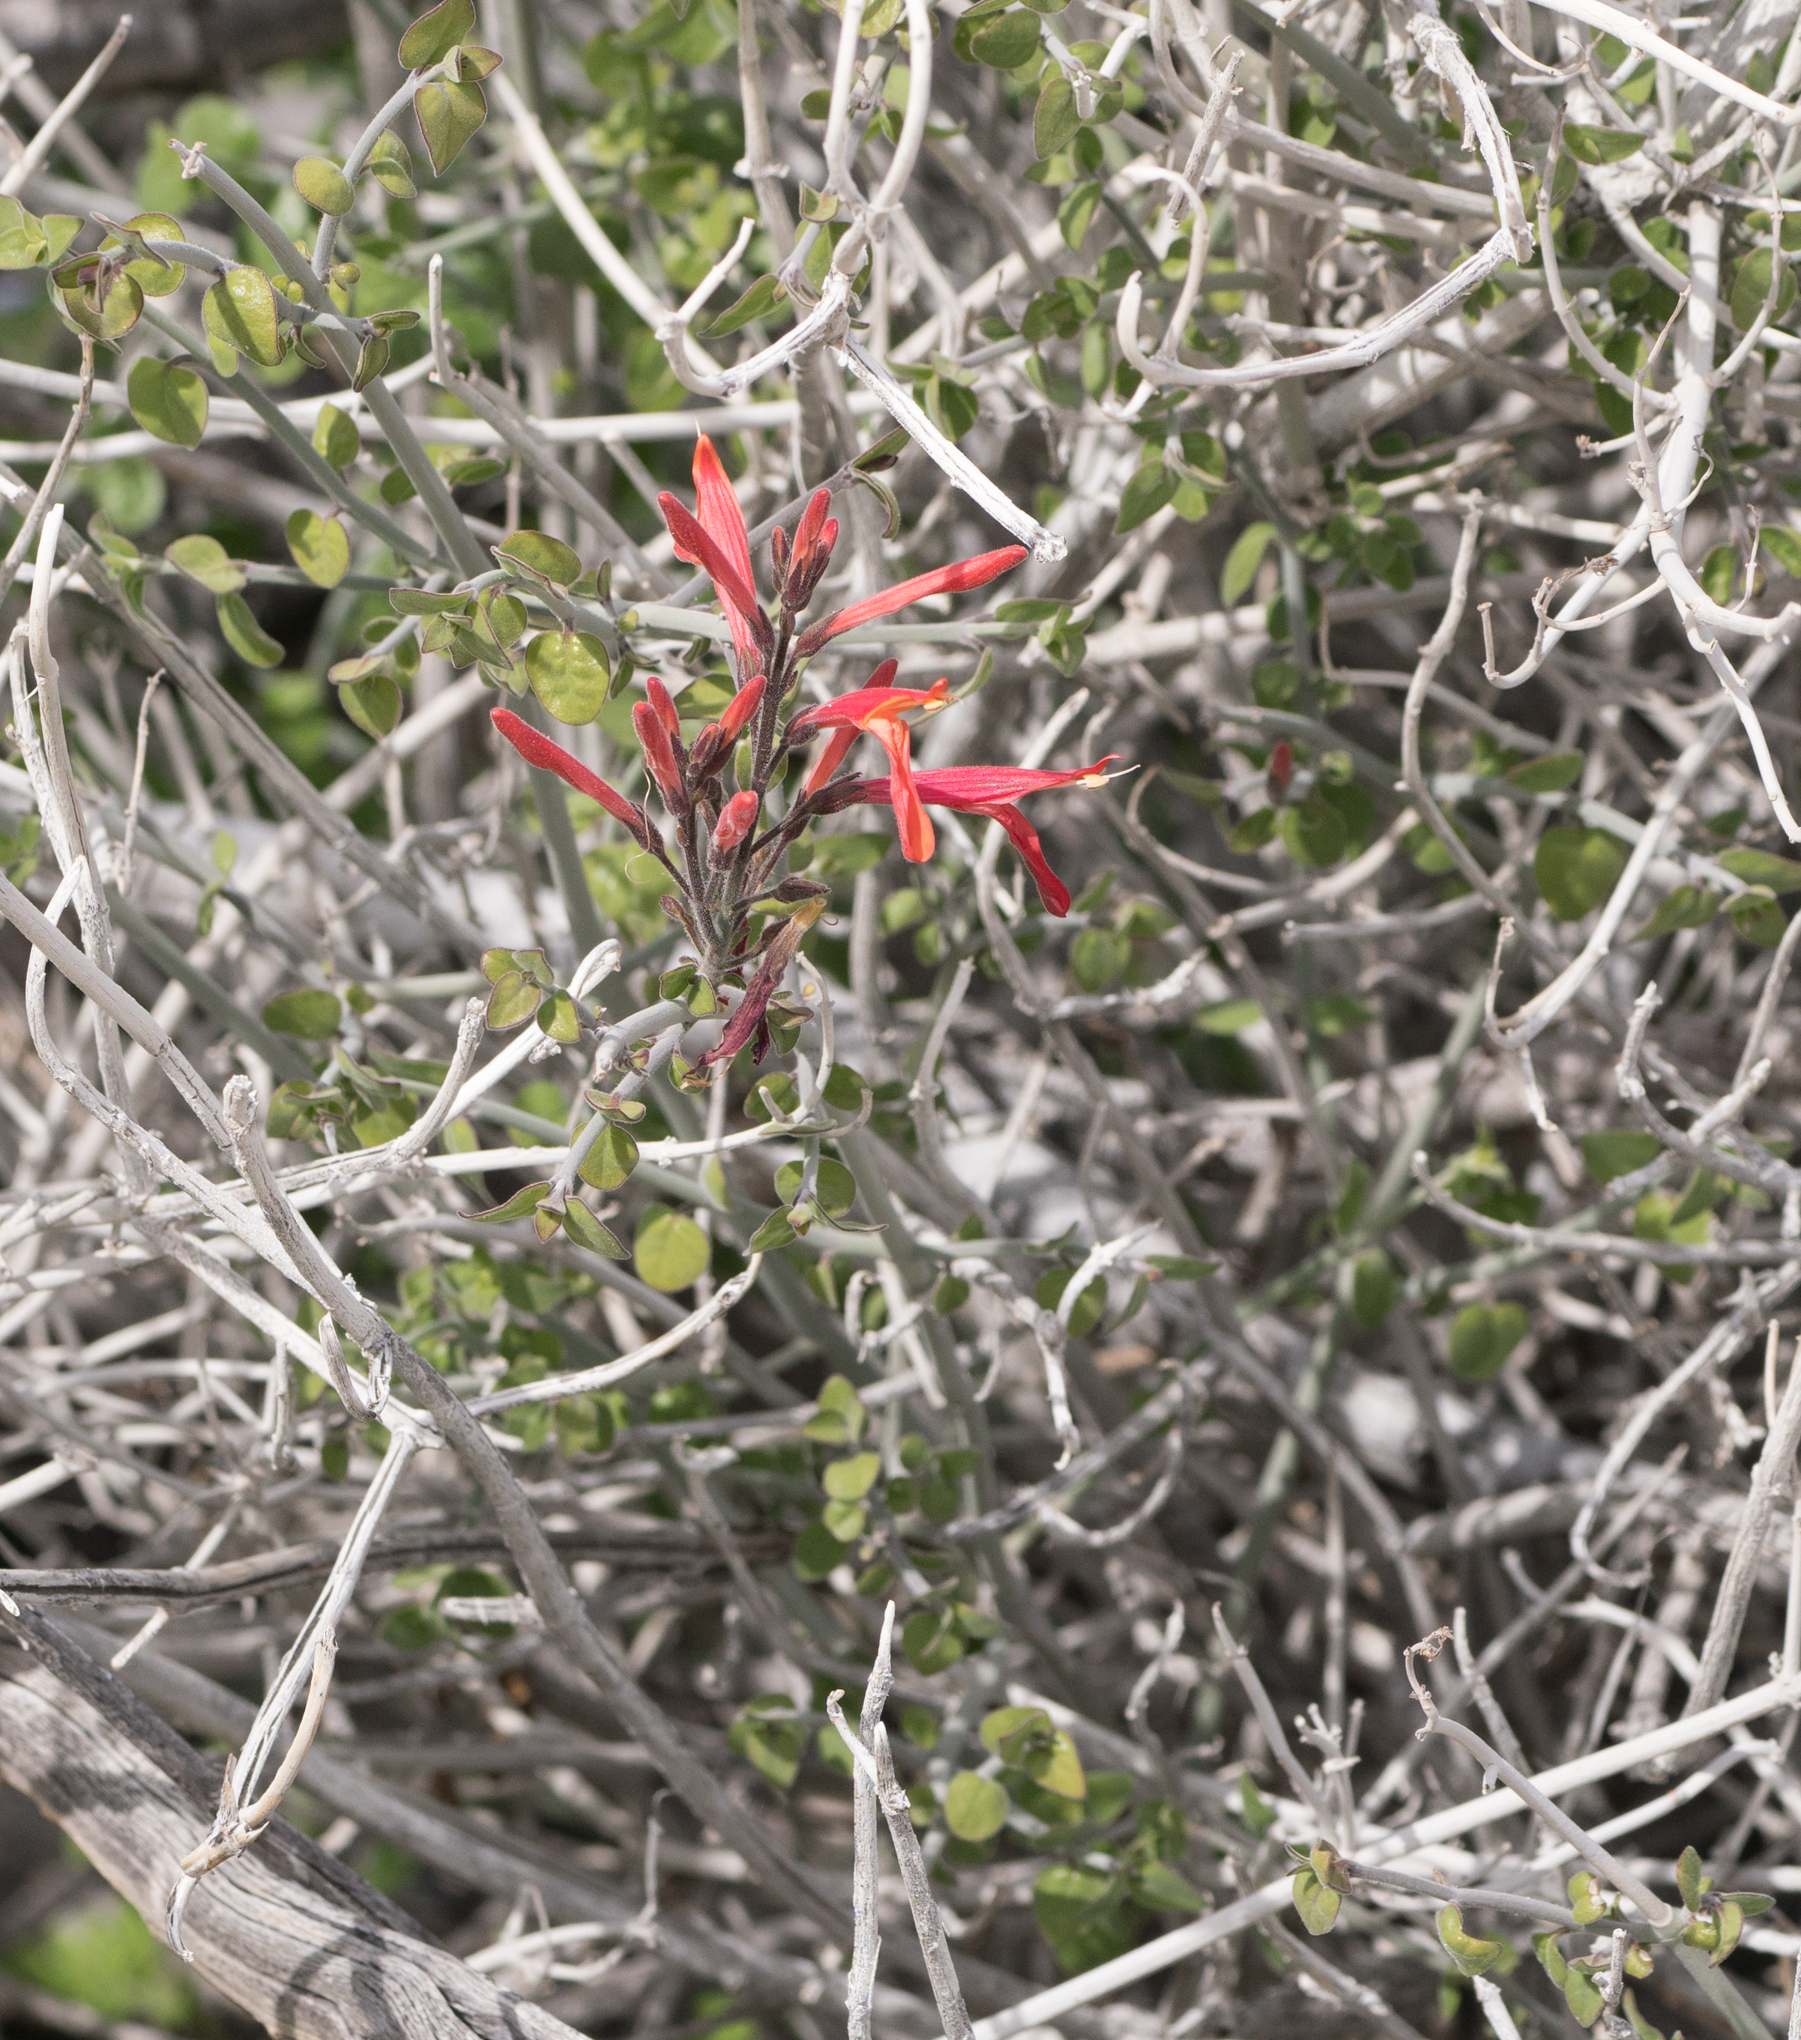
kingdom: Plantae
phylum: Tracheophyta
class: Magnoliopsida
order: Lamiales
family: Acanthaceae
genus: Justicia
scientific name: Justicia californica
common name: Chuparosa-honeysuckle
